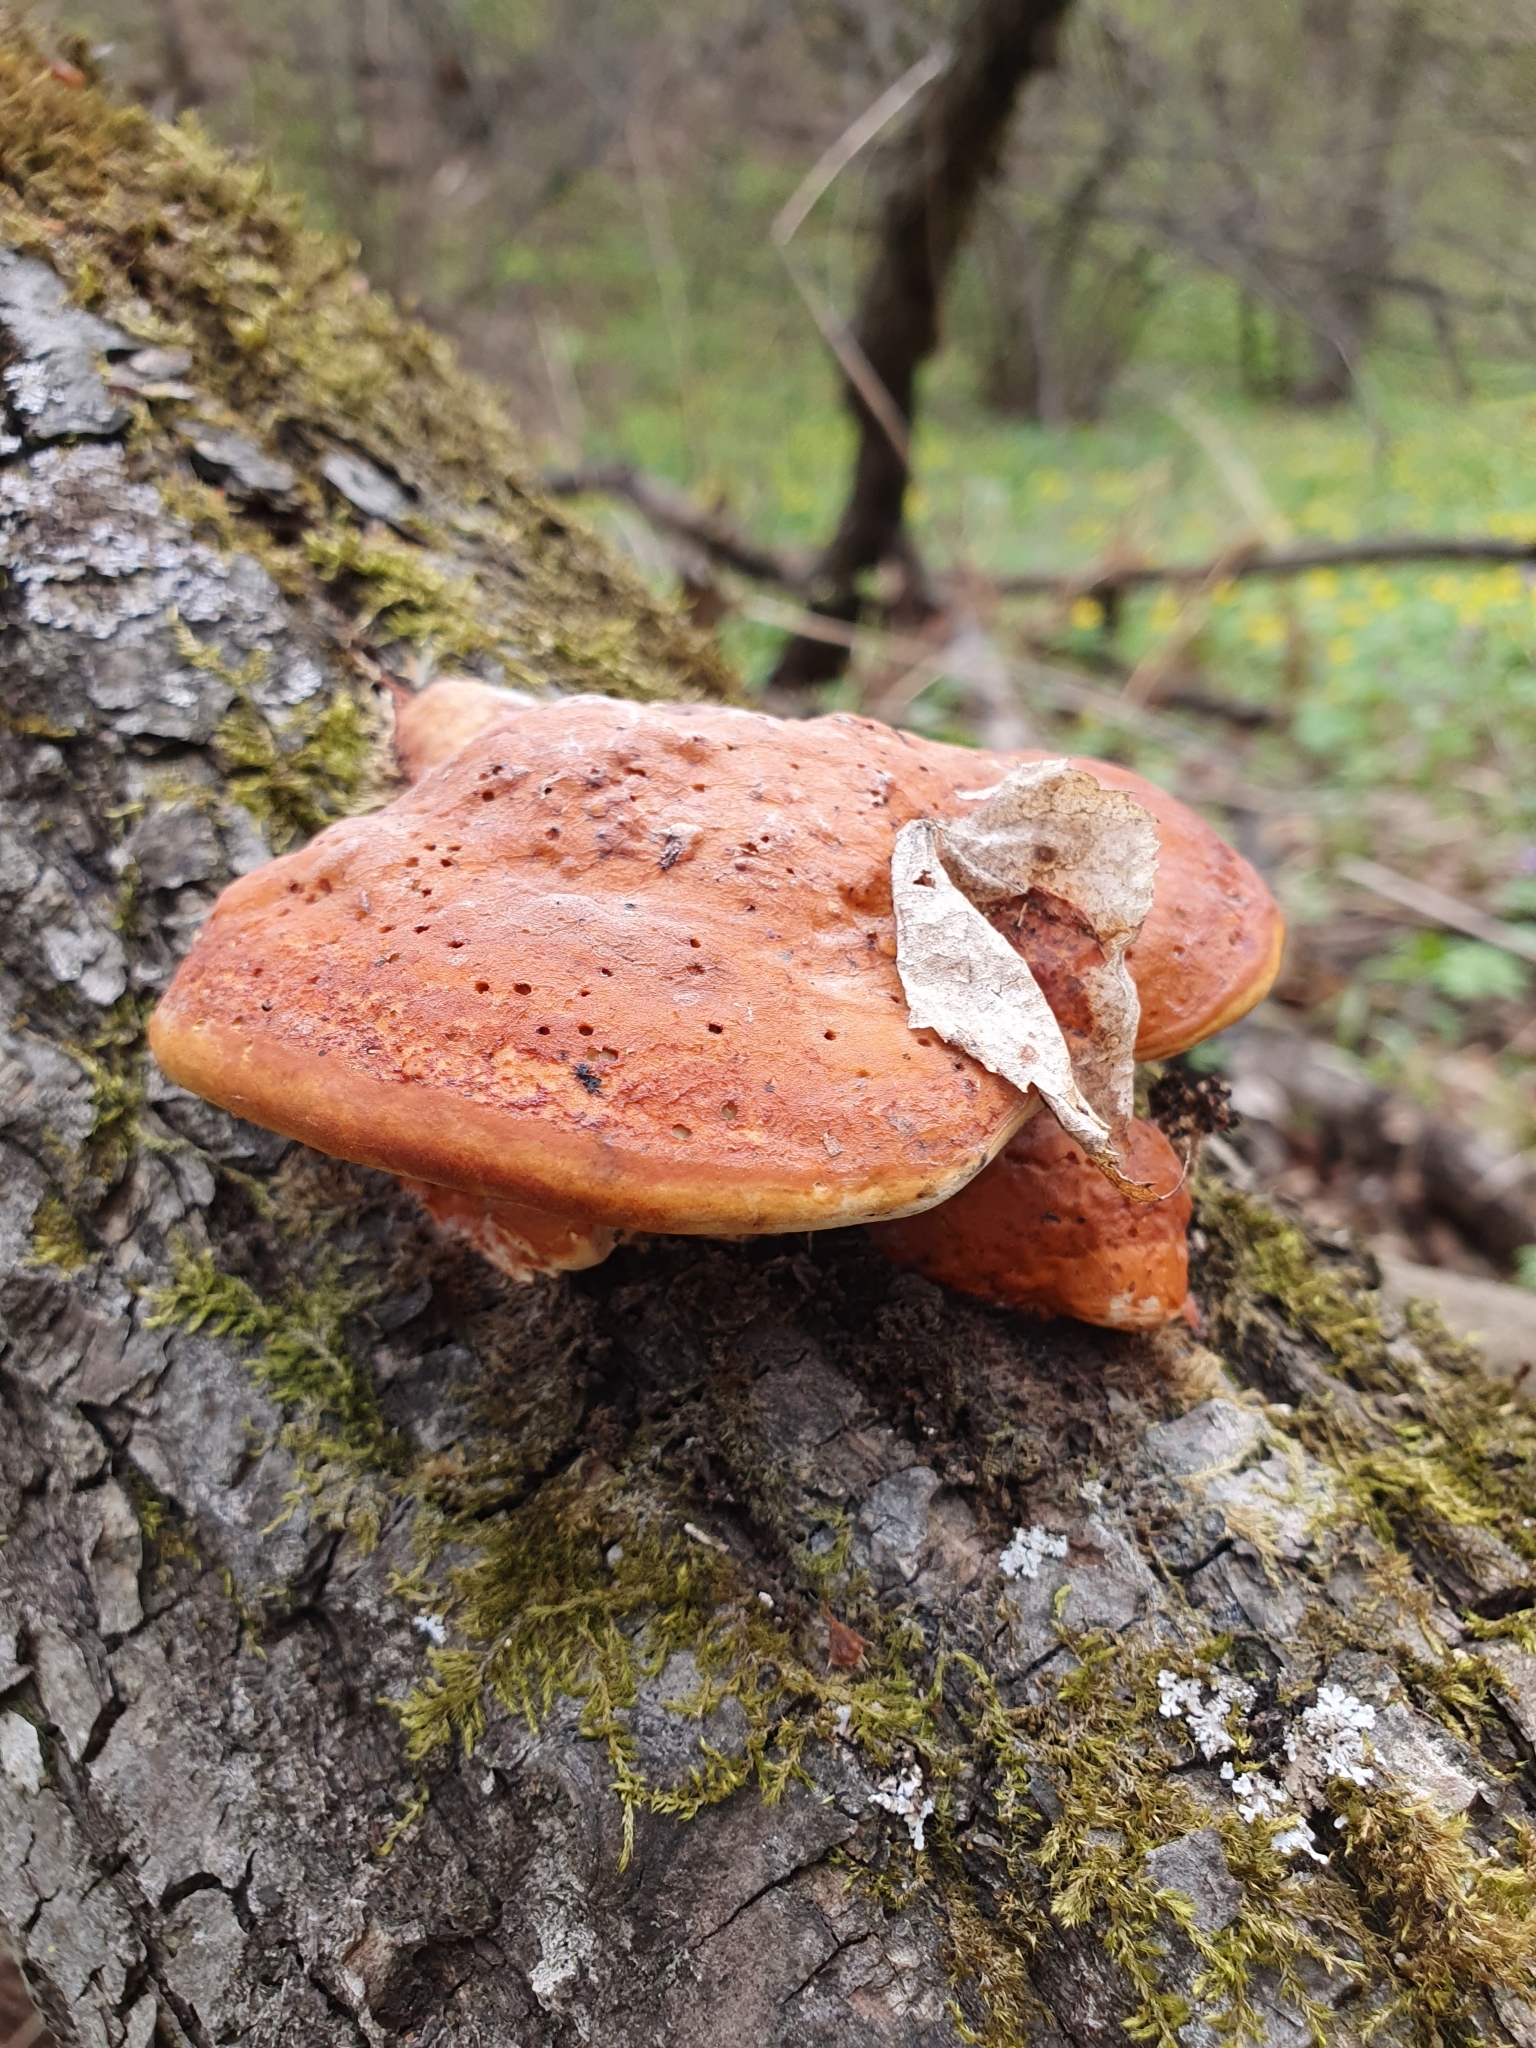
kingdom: Fungi
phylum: Basidiomycota
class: Agaricomycetes
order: Polyporales
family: Polyporaceae
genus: Trametes
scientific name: Trametes cinnabarina
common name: Northern cinnabar polypore
